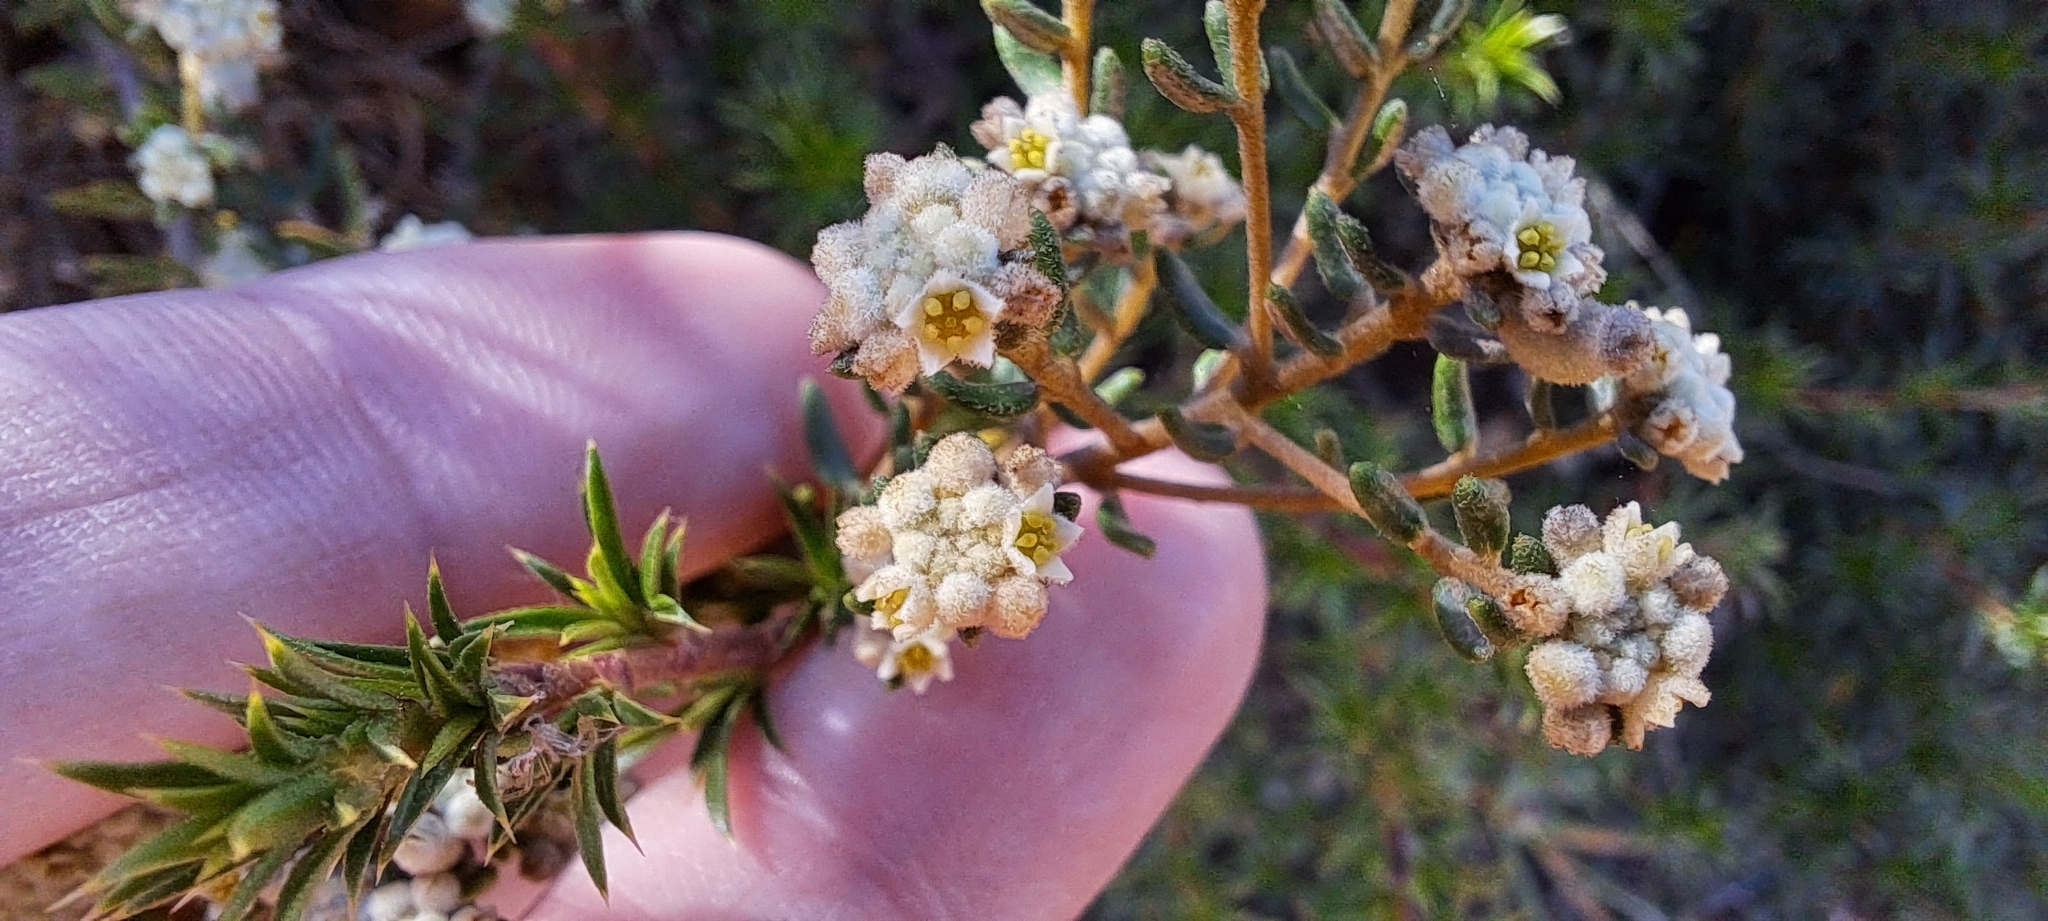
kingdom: Plantae
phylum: Tracheophyta
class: Magnoliopsida
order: Rosales
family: Rhamnaceae
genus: Phylica
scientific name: Phylica lasiocarpa
